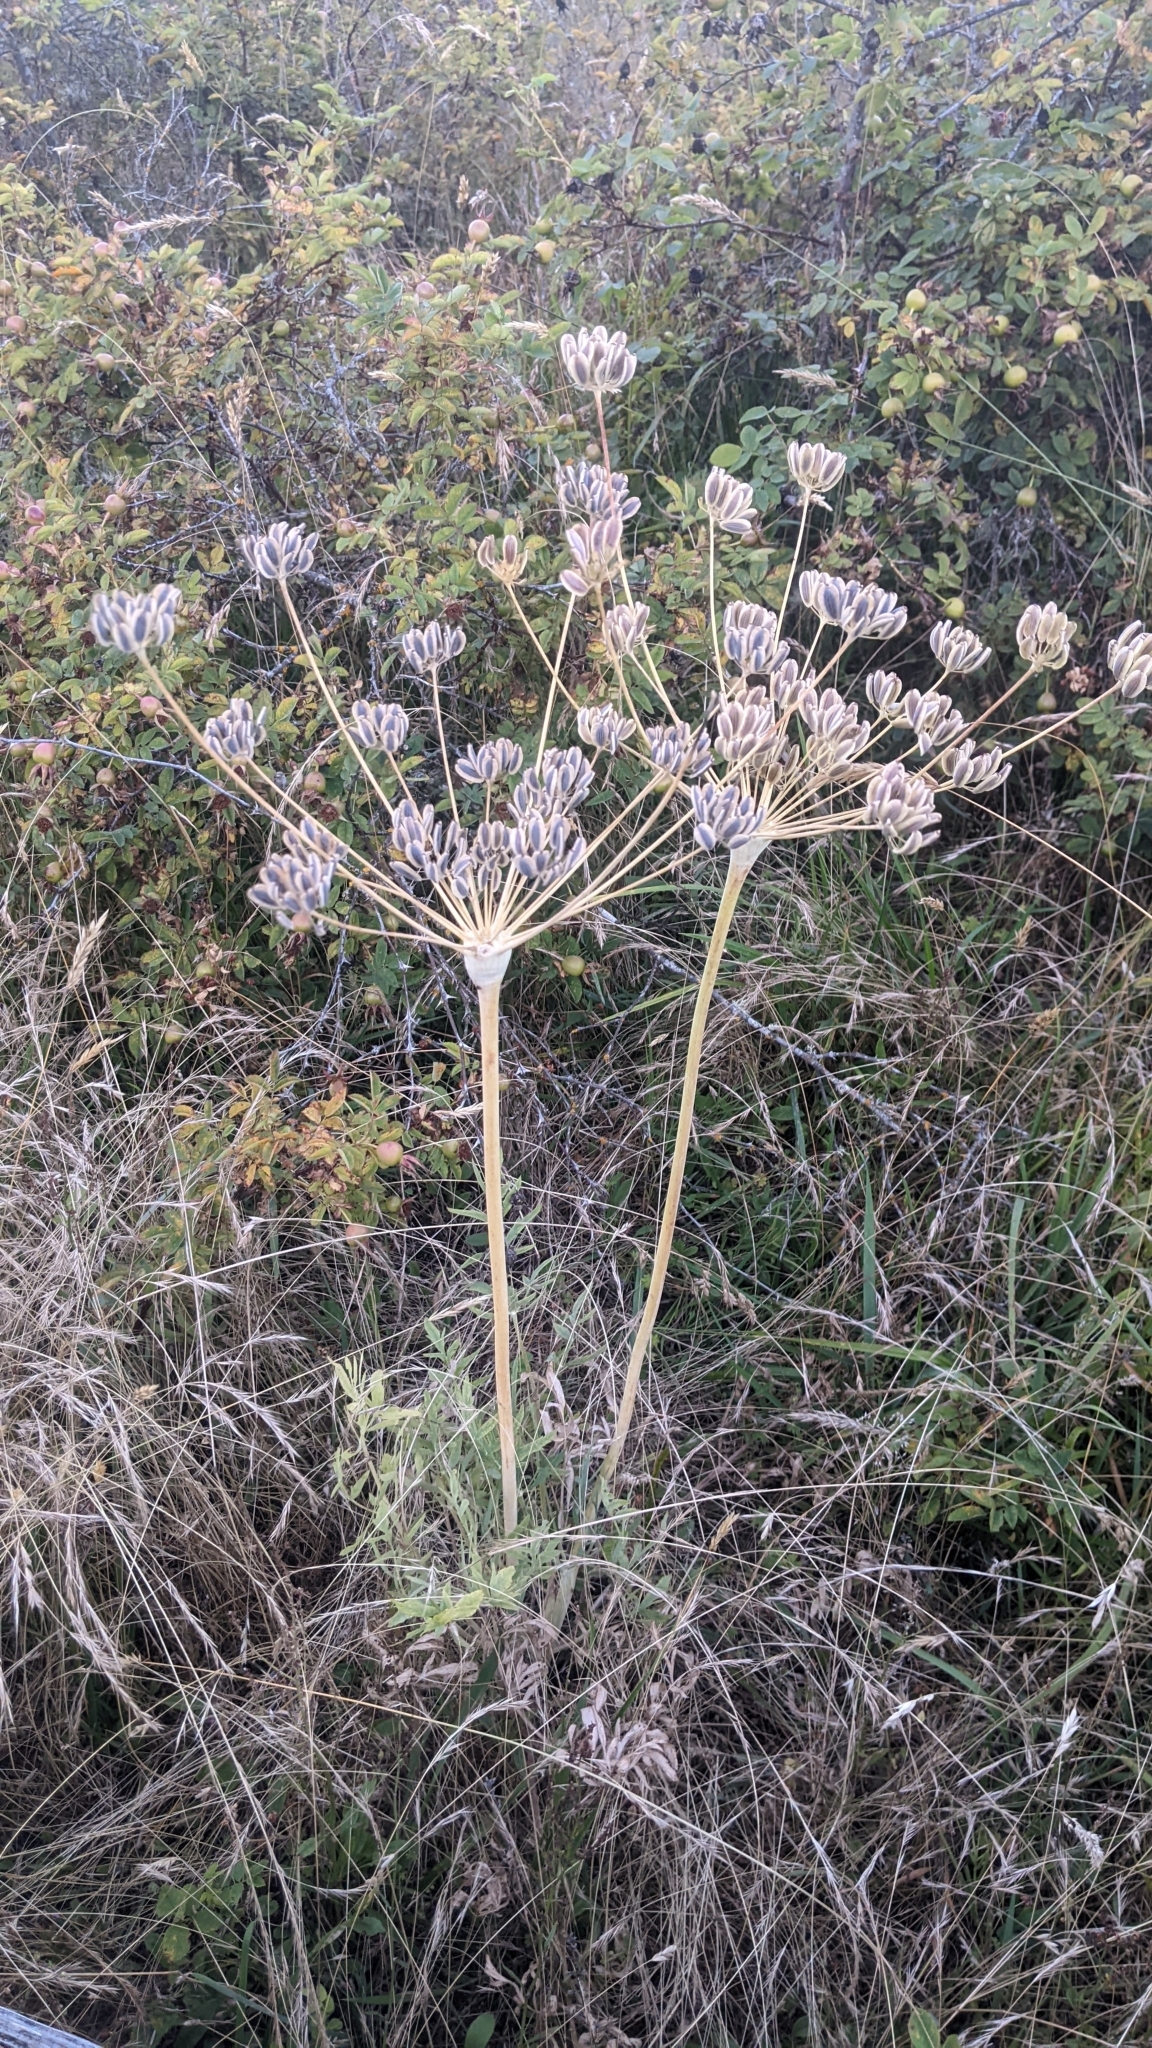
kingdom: Plantae
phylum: Tracheophyta
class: Magnoliopsida
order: Apiales
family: Apiaceae
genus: Lomatium
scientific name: Lomatium nudicaule
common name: Pestle lomatium
